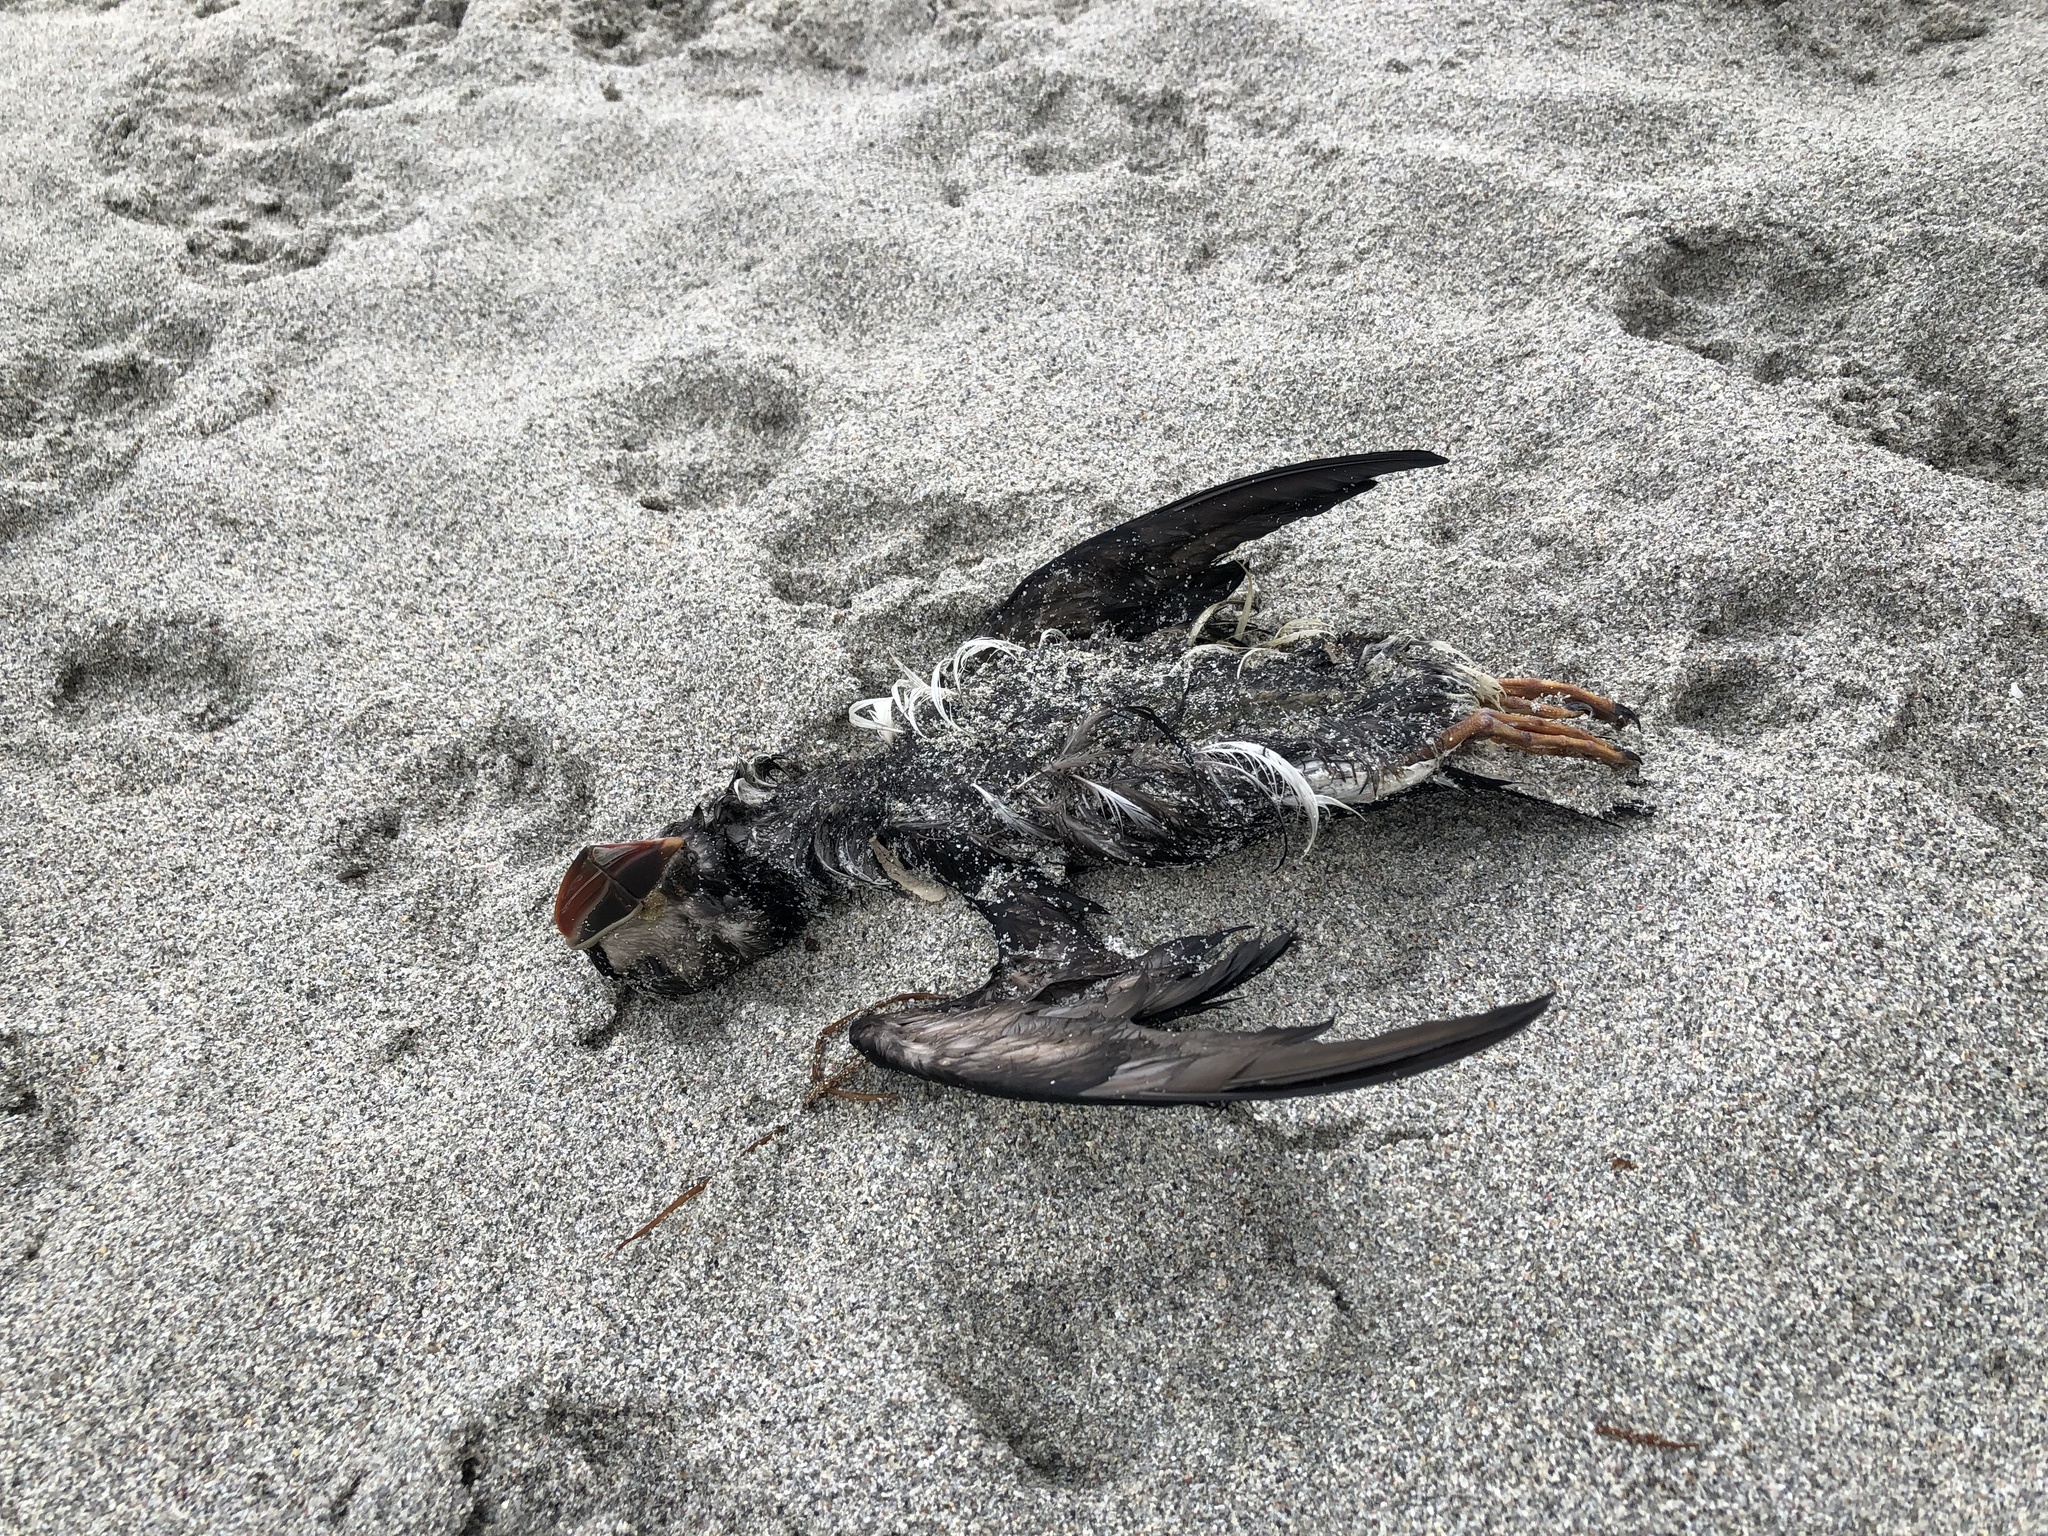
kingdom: Animalia
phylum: Chordata
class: Aves
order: Charadriiformes
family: Alcidae
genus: Fratercula
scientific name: Fratercula arctica
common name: Atlantic puffin
